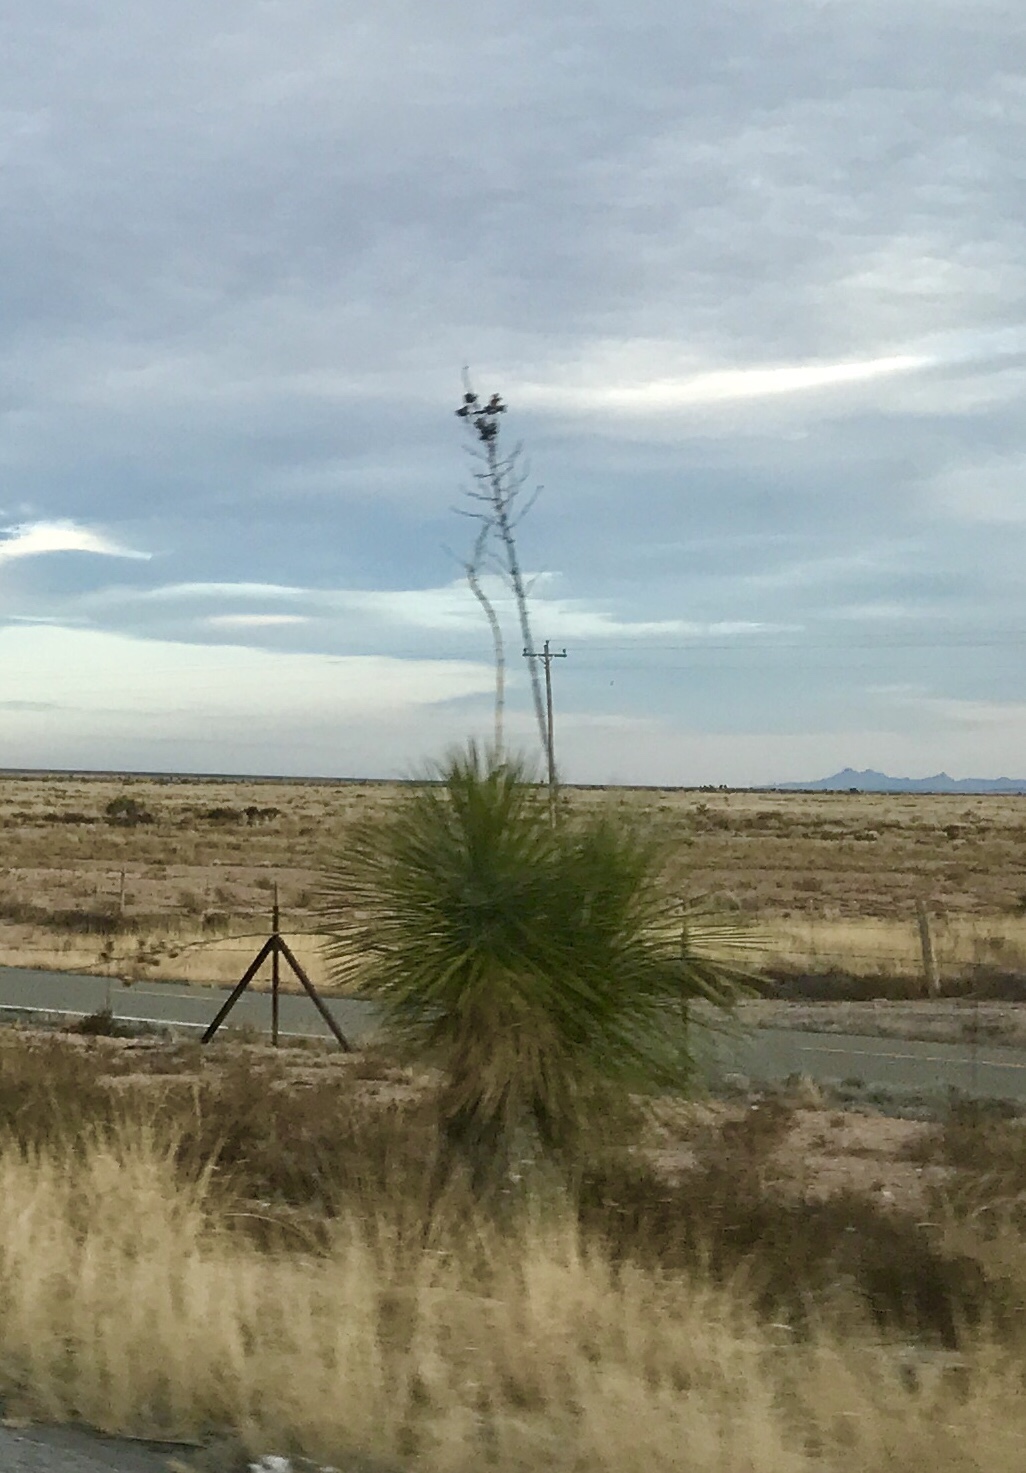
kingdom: Plantae
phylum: Tracheophyta
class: Liliopsida
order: Asparagales
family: Asparagaceae
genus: Yucca
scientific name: Yucca elata
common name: Palmella
